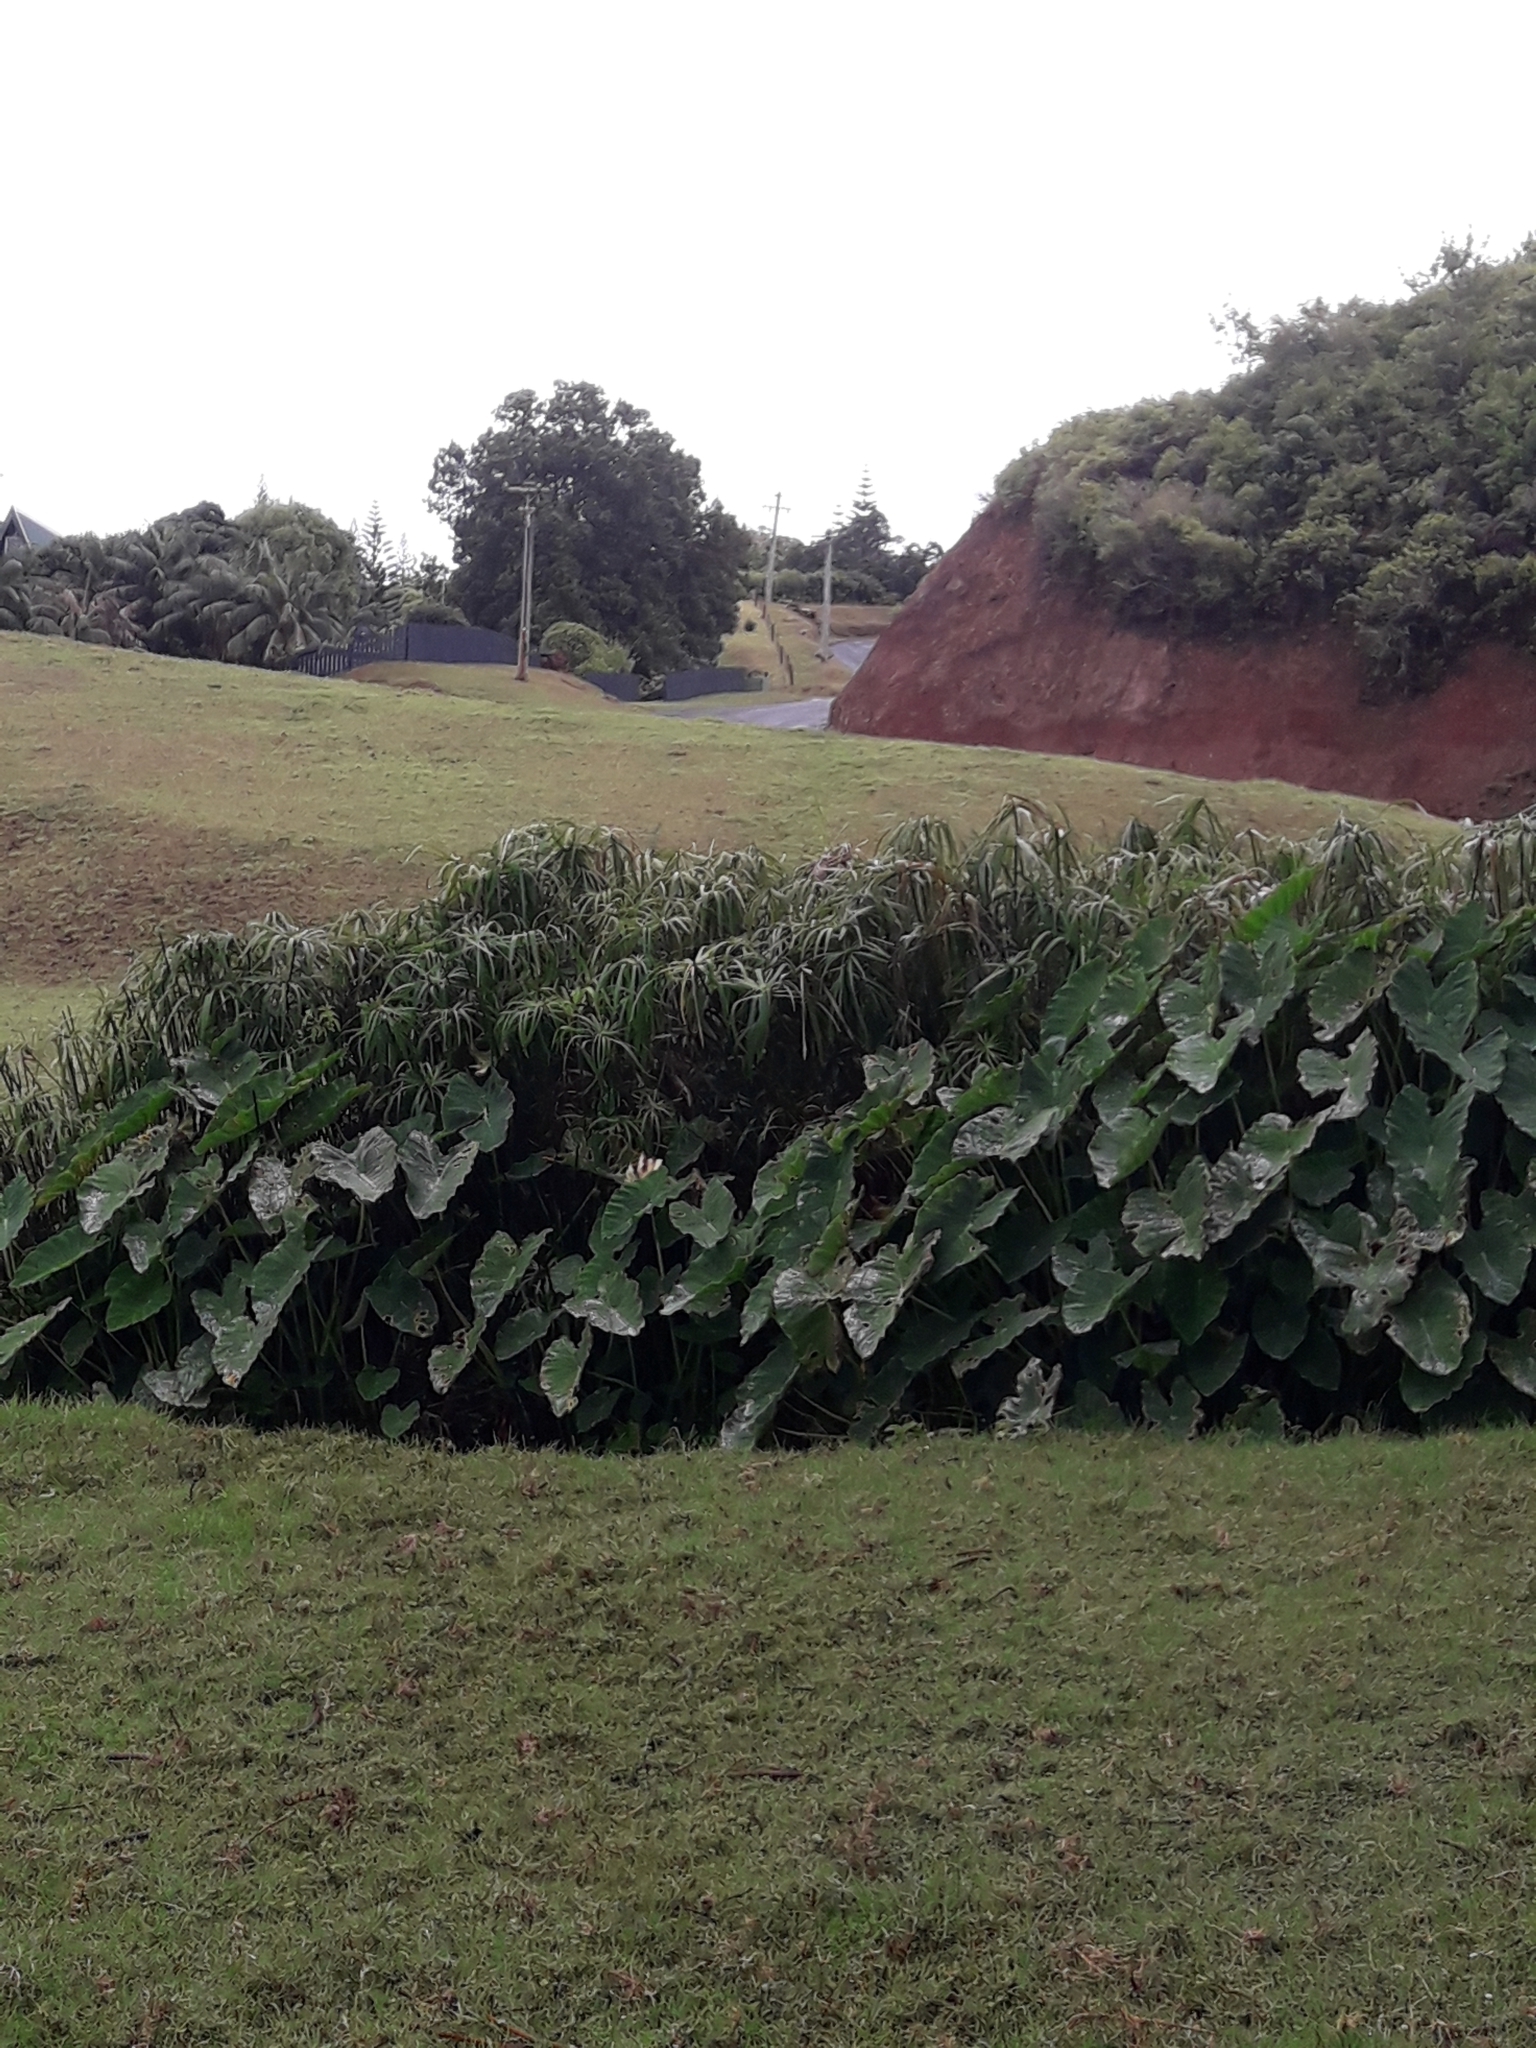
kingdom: Plantae
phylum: Tracheophyta
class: Liliopsida
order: Poales
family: Cyperaceae
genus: Cyperus
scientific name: Cyperus alternifolius
